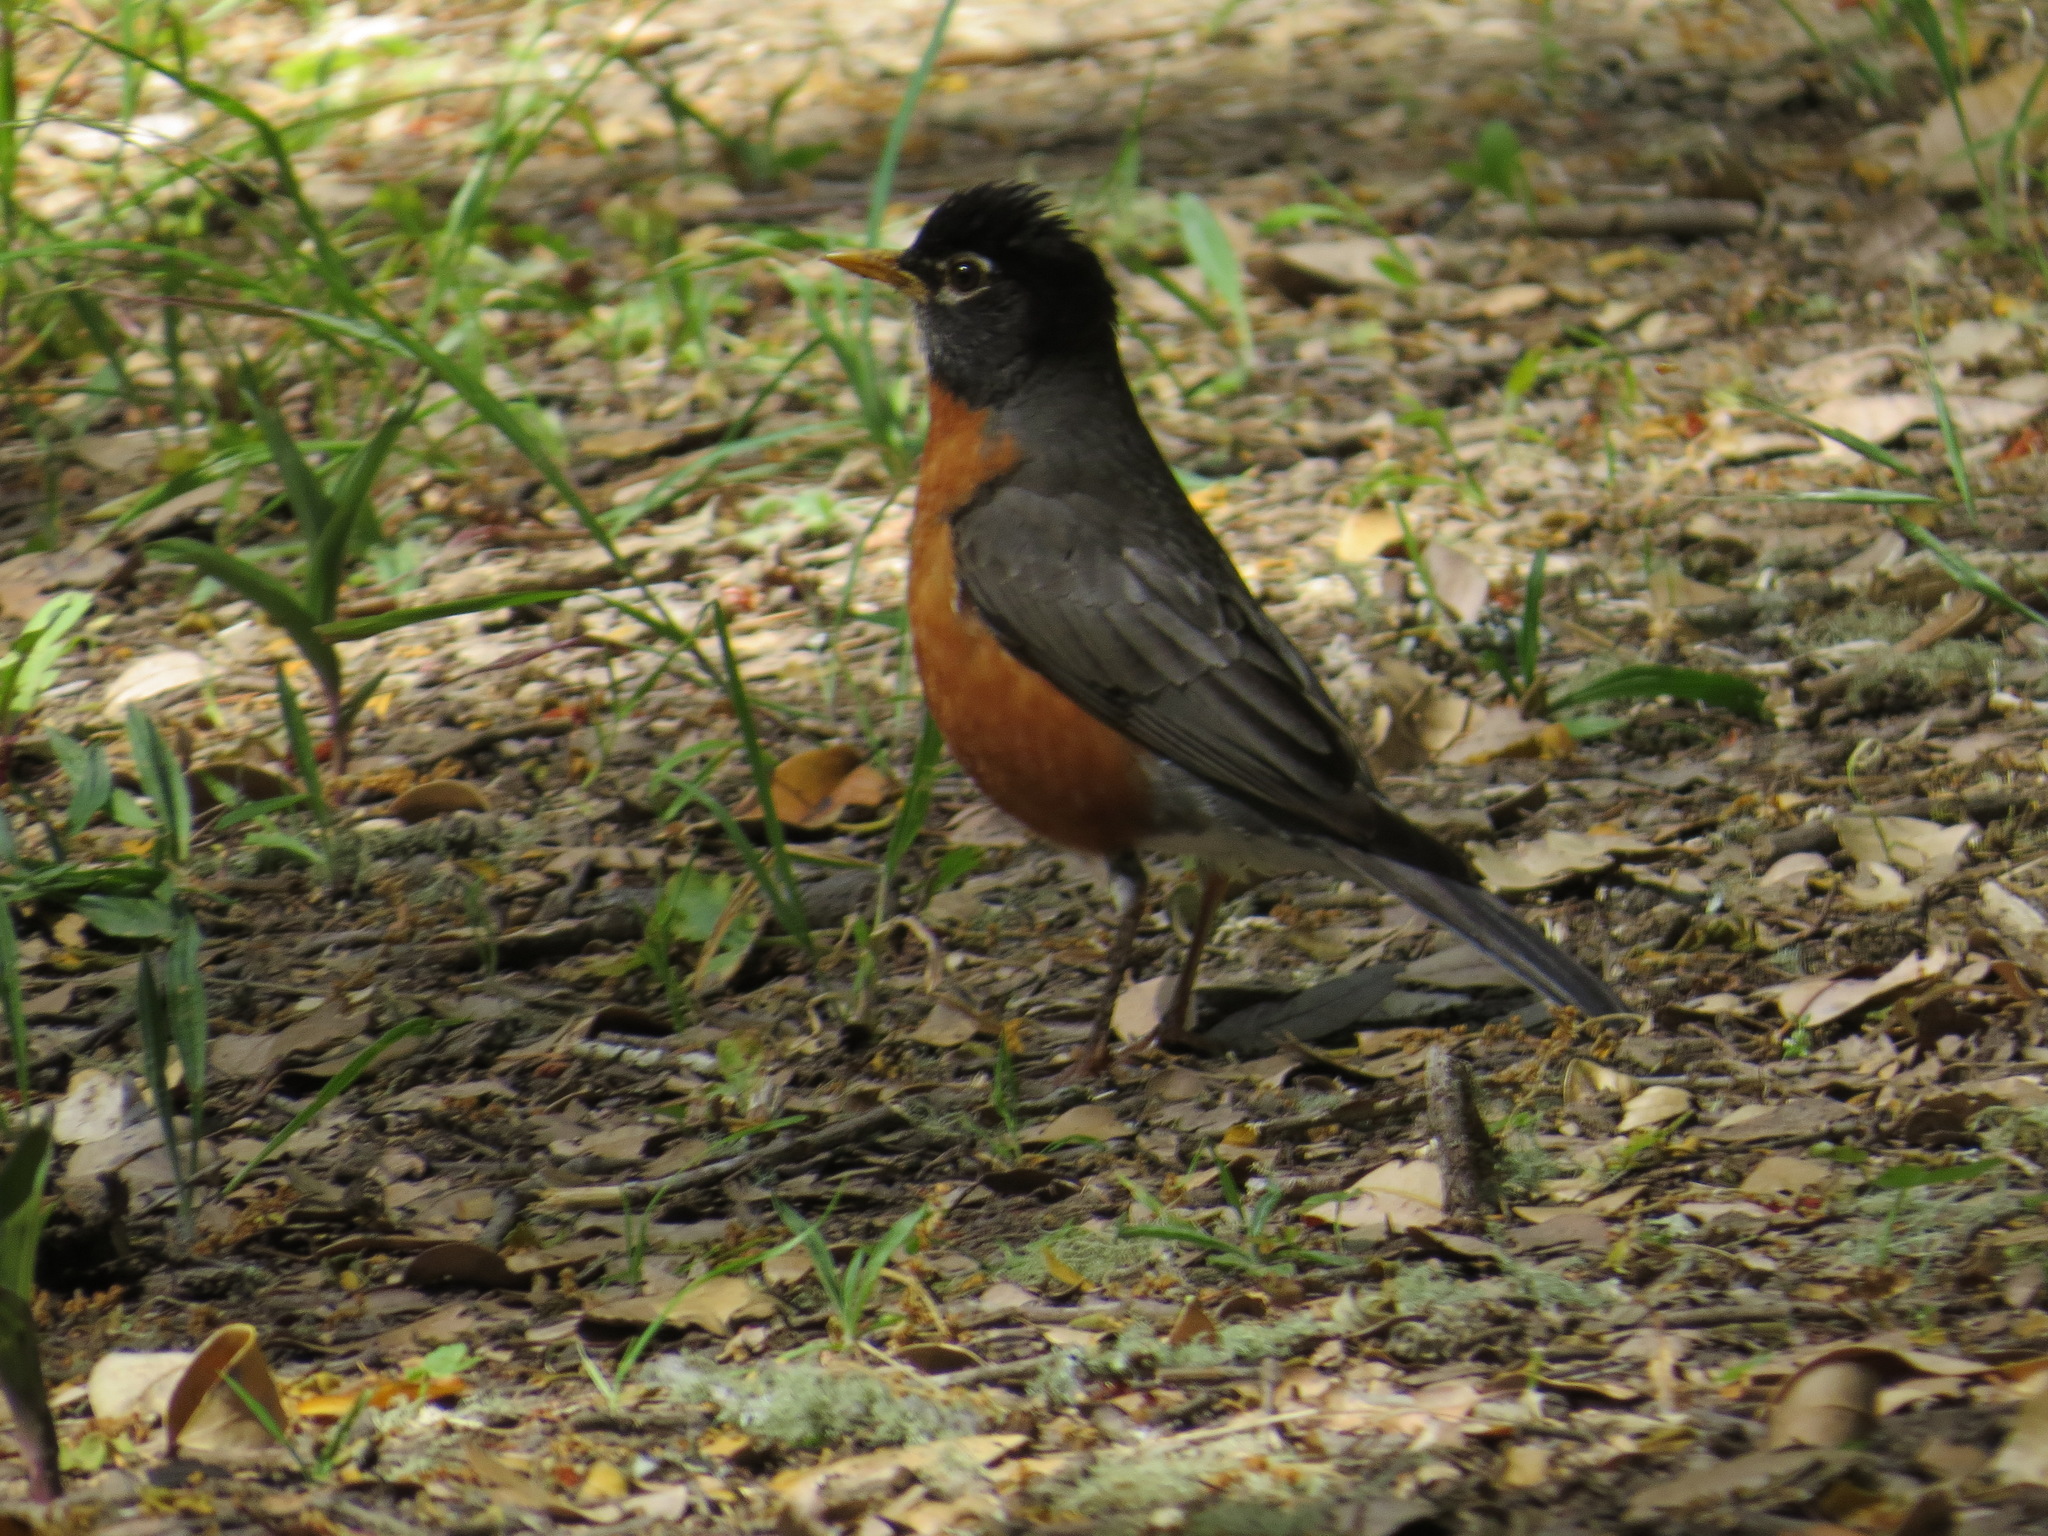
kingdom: Animalia
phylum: Chordata
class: Aves
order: Passeriformes
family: Turdidae
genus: Turdus
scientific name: Turdus migratorius
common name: American robin
